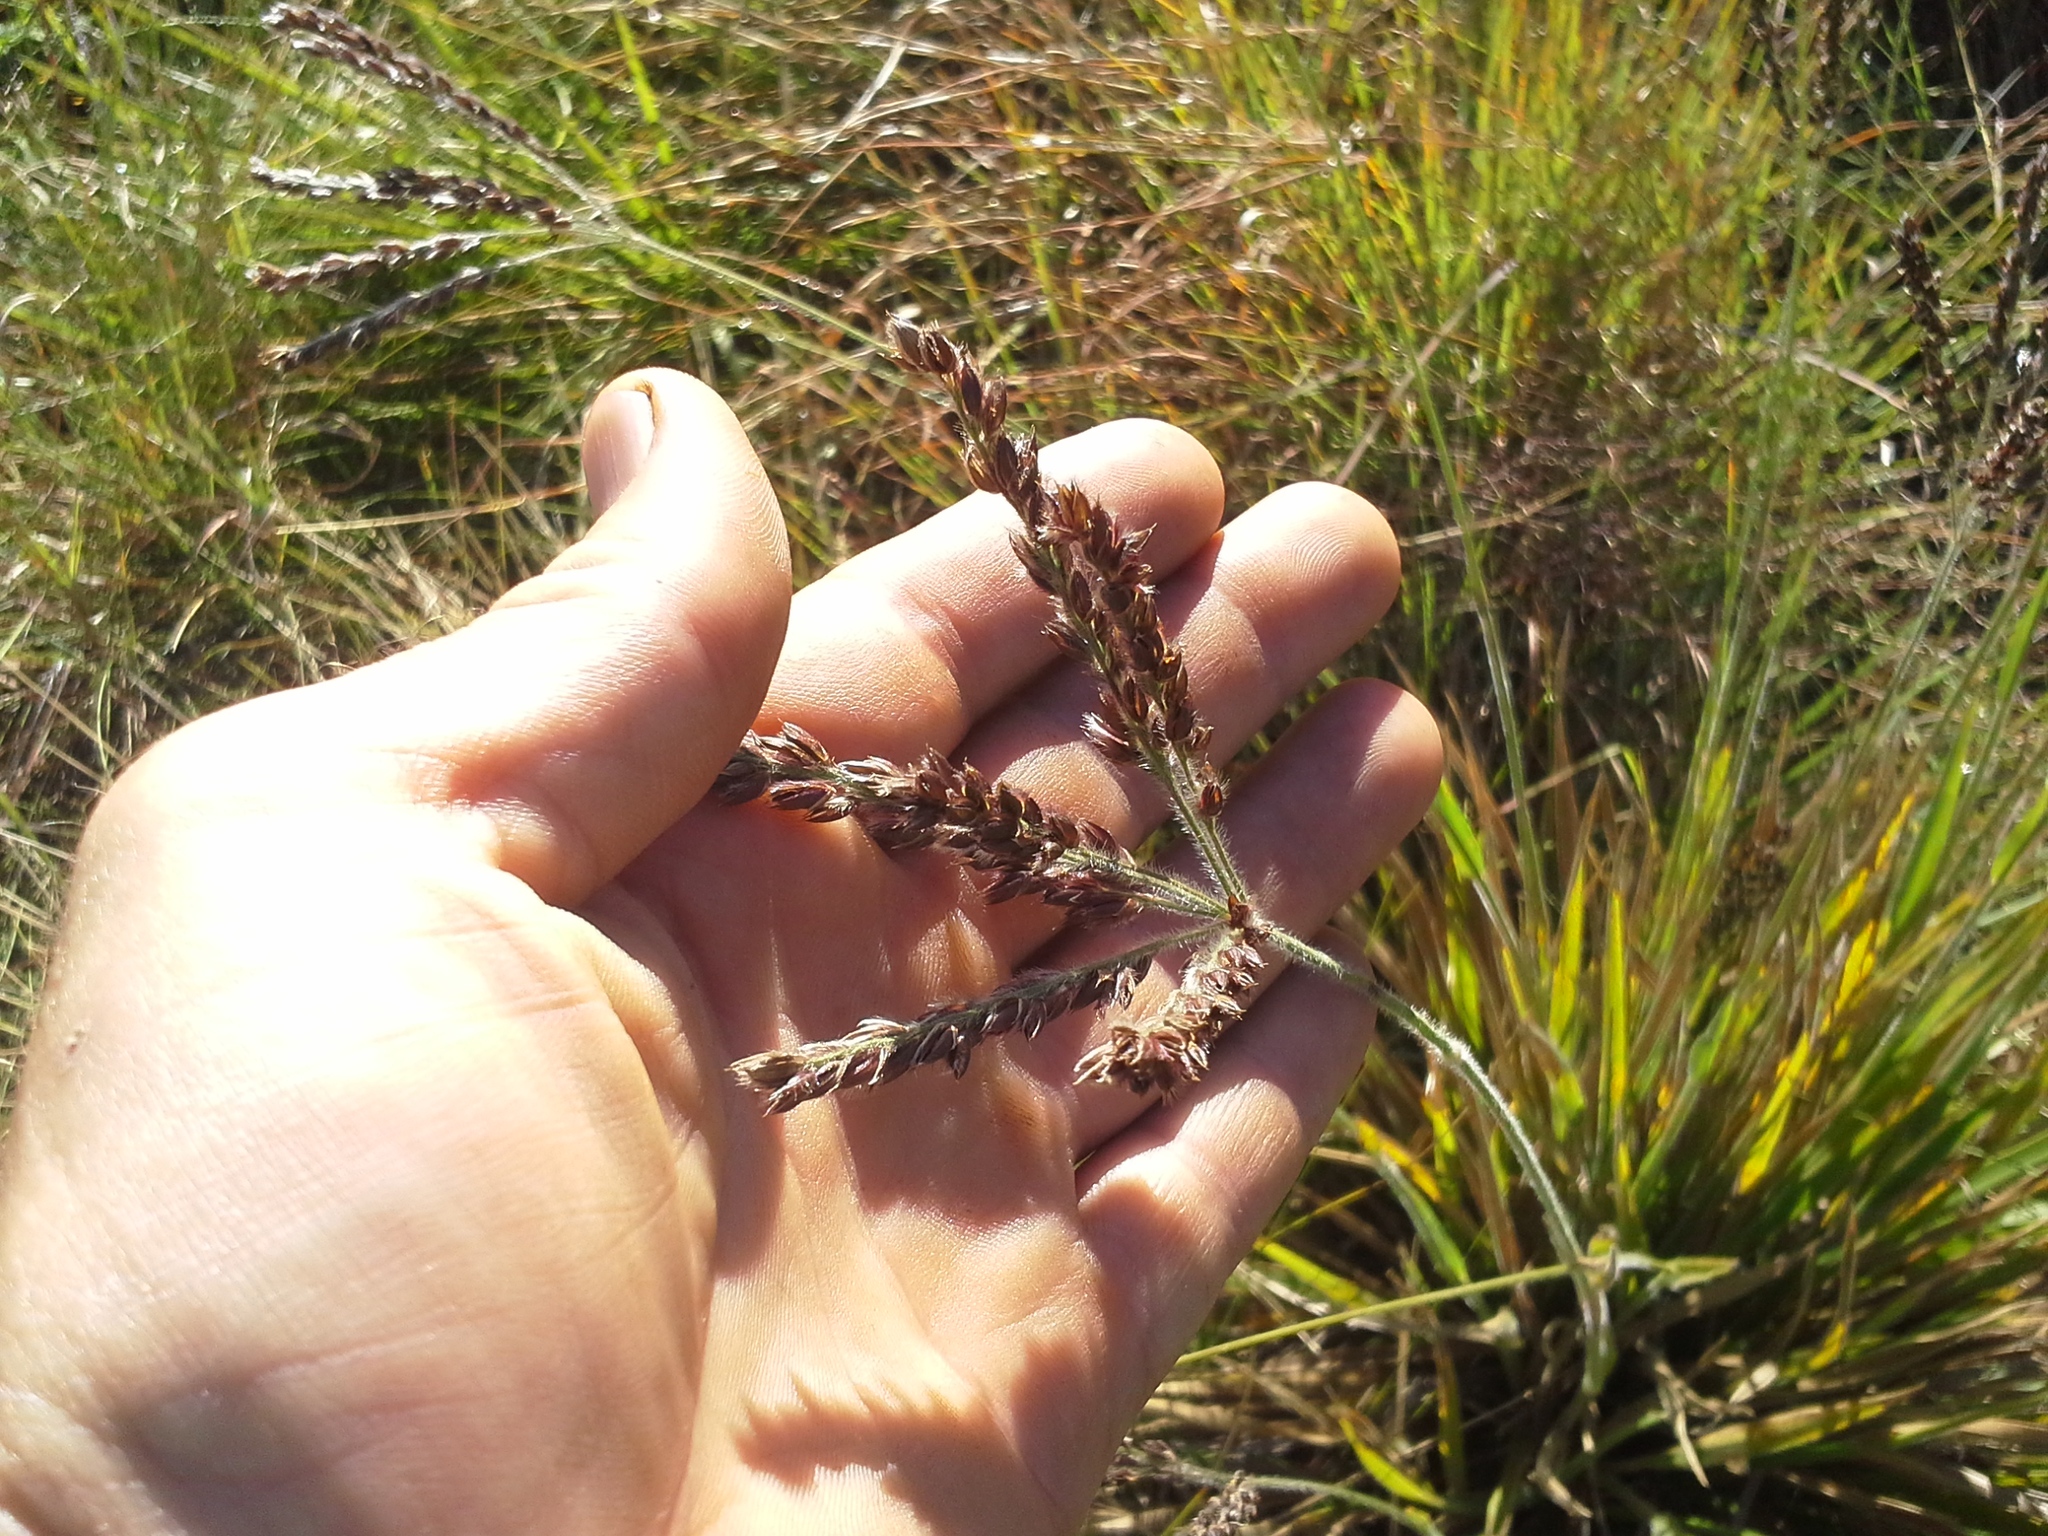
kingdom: Plantae
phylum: Tracheophyta
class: Liliopsida
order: Poales
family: Poaceae
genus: Alloteropsis
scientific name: Alloteropsis semialata
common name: Cockatoo grass
